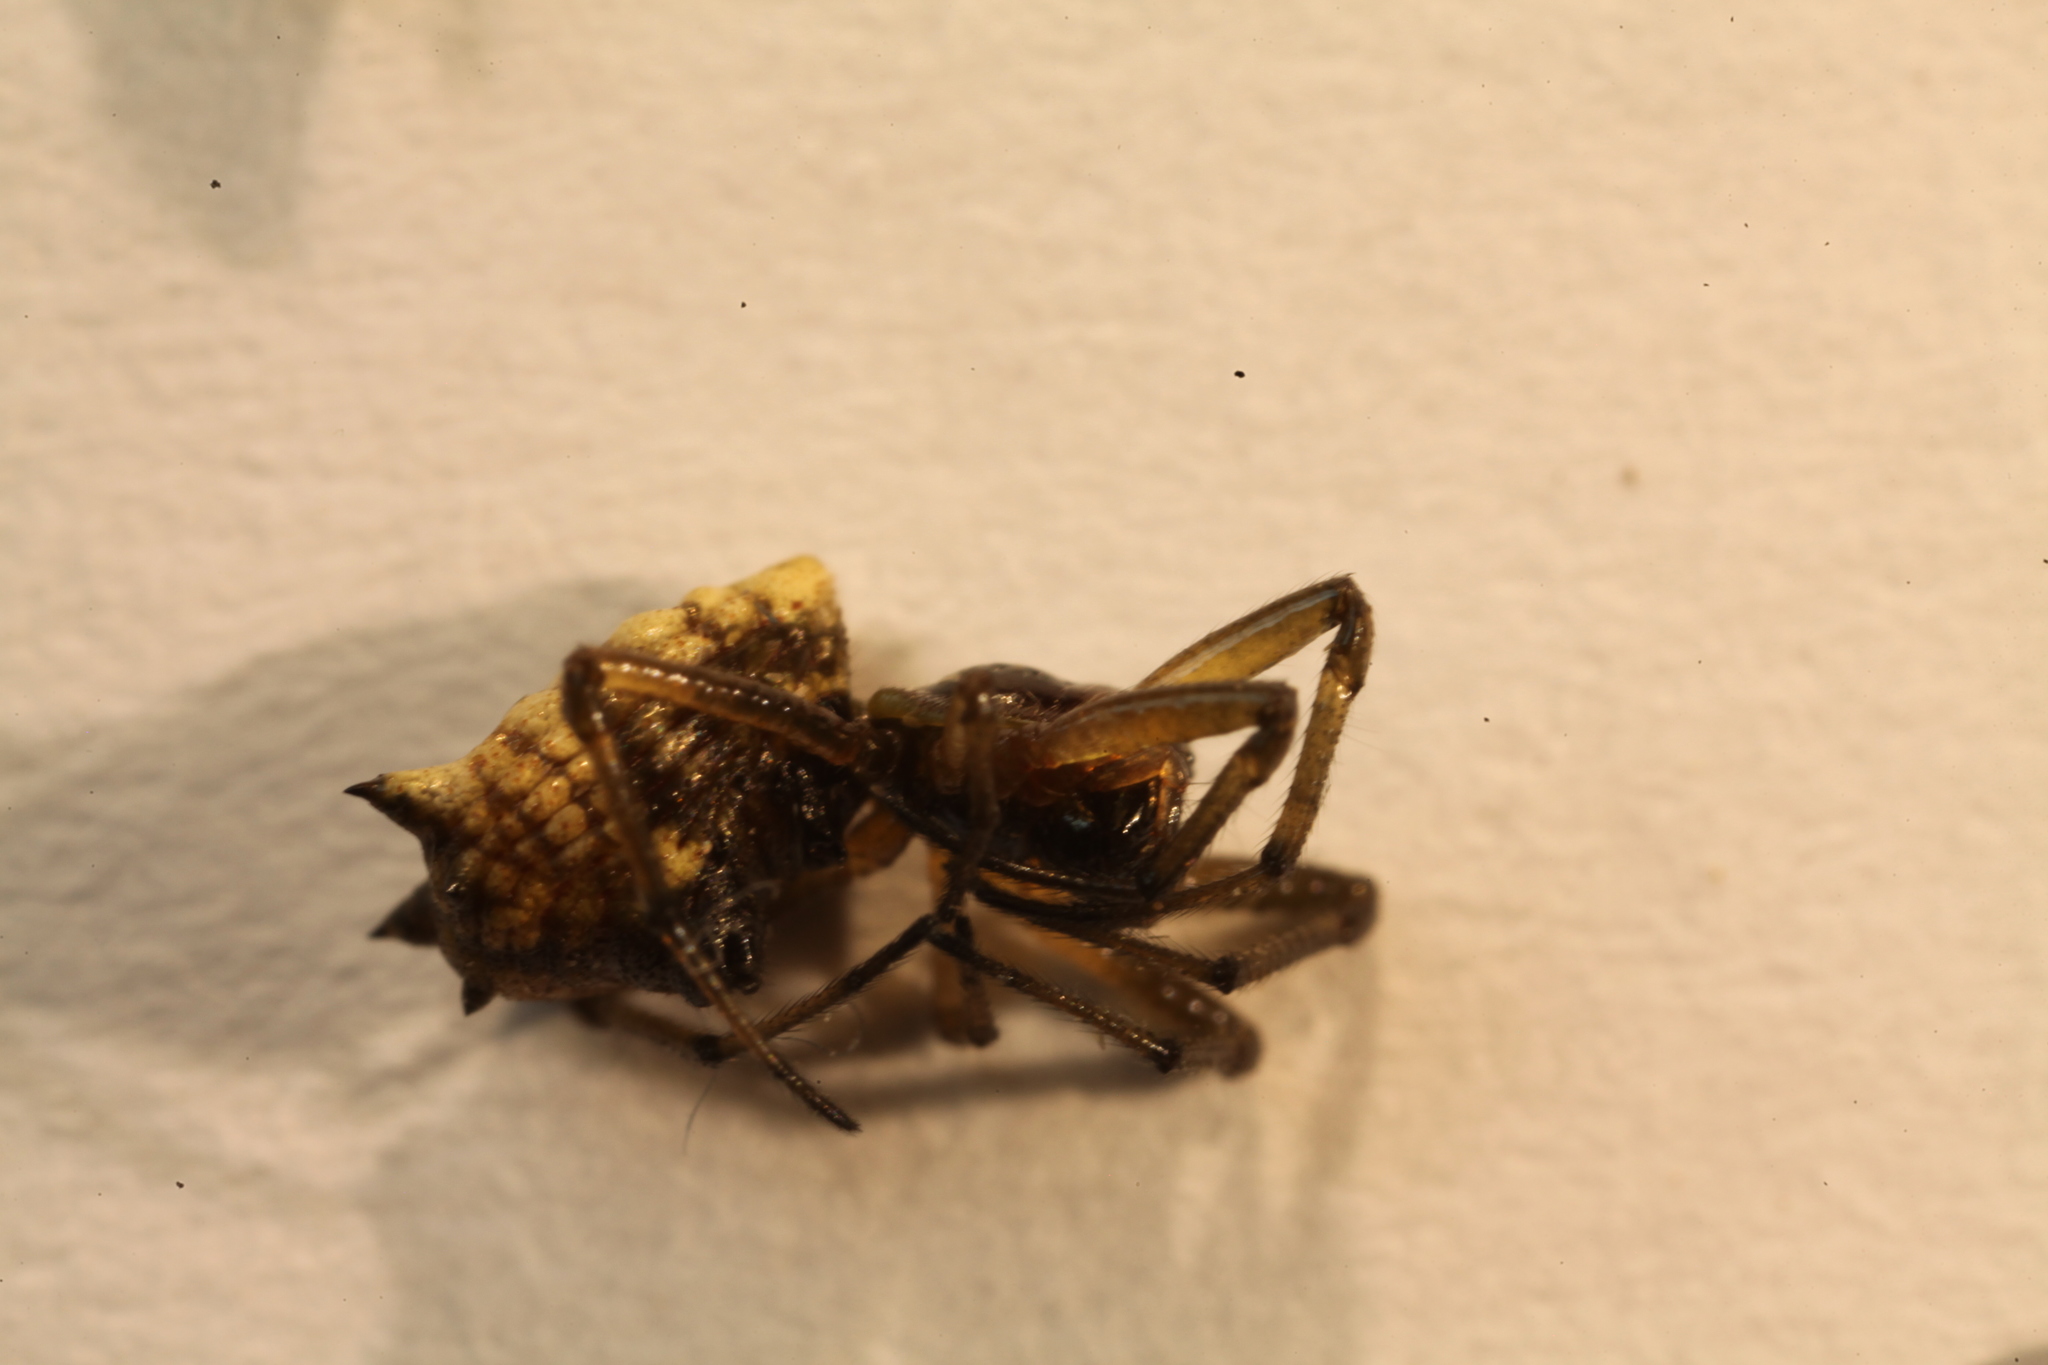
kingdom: Animalia
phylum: Arthropoda
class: Arachnida
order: Araneae
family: Araneidae
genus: Micrathena
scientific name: Micrathena mitrata
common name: Orb weavers
